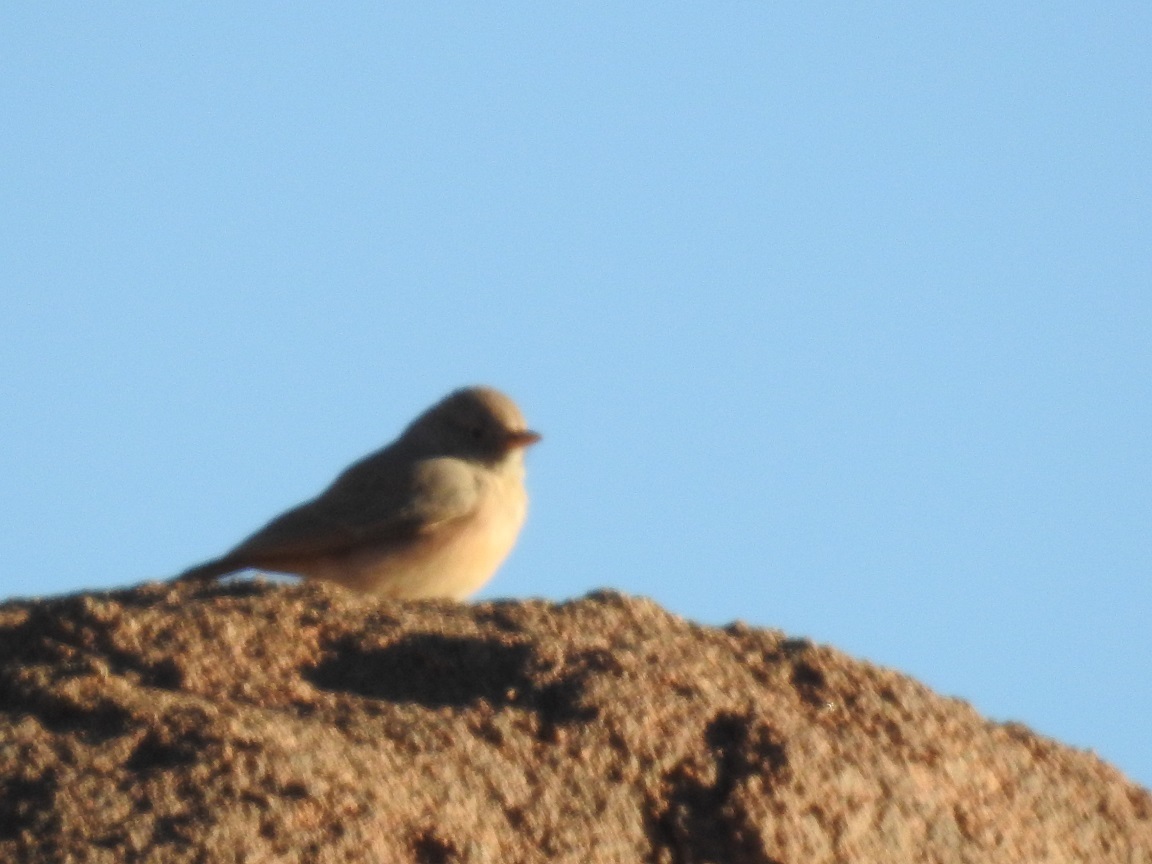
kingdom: Animalia
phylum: Chordata
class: Aves
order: Passeriformes
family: Alaudidae
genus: Ammomanes
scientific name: Ammomanes deserti
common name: Desert lark
